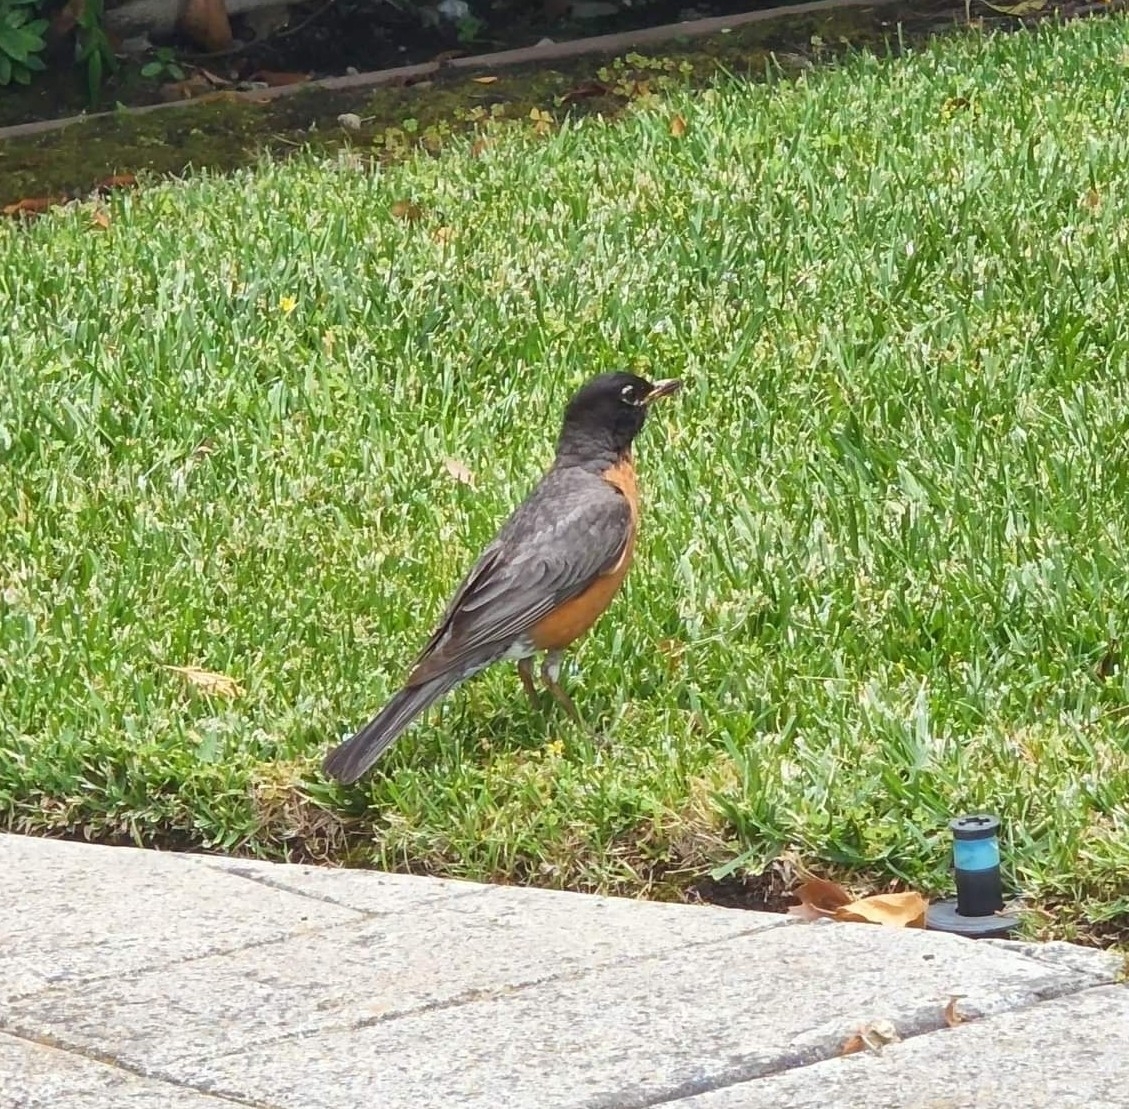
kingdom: Animalia
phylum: Chordata
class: Aves
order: Passeriformes
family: Turdidae
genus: Turdus
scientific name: Turdus migratorius
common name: American robin
